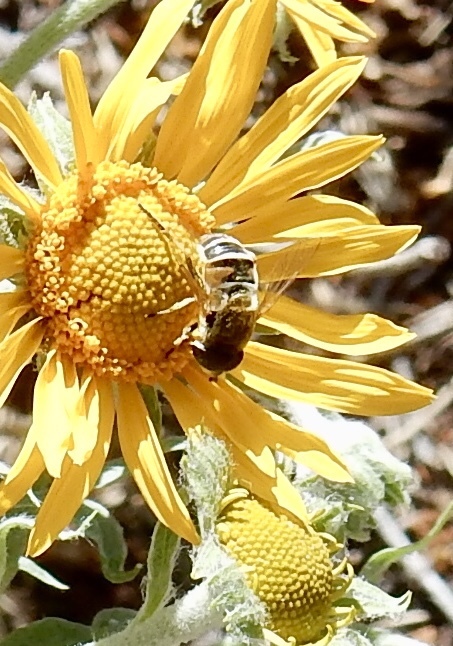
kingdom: Animalia
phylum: Arthropoda
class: Insecta
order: Diptera
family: Syrphidae
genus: Eristalis
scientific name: Eristalis stipator
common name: Yellow-shouldered drone fly
